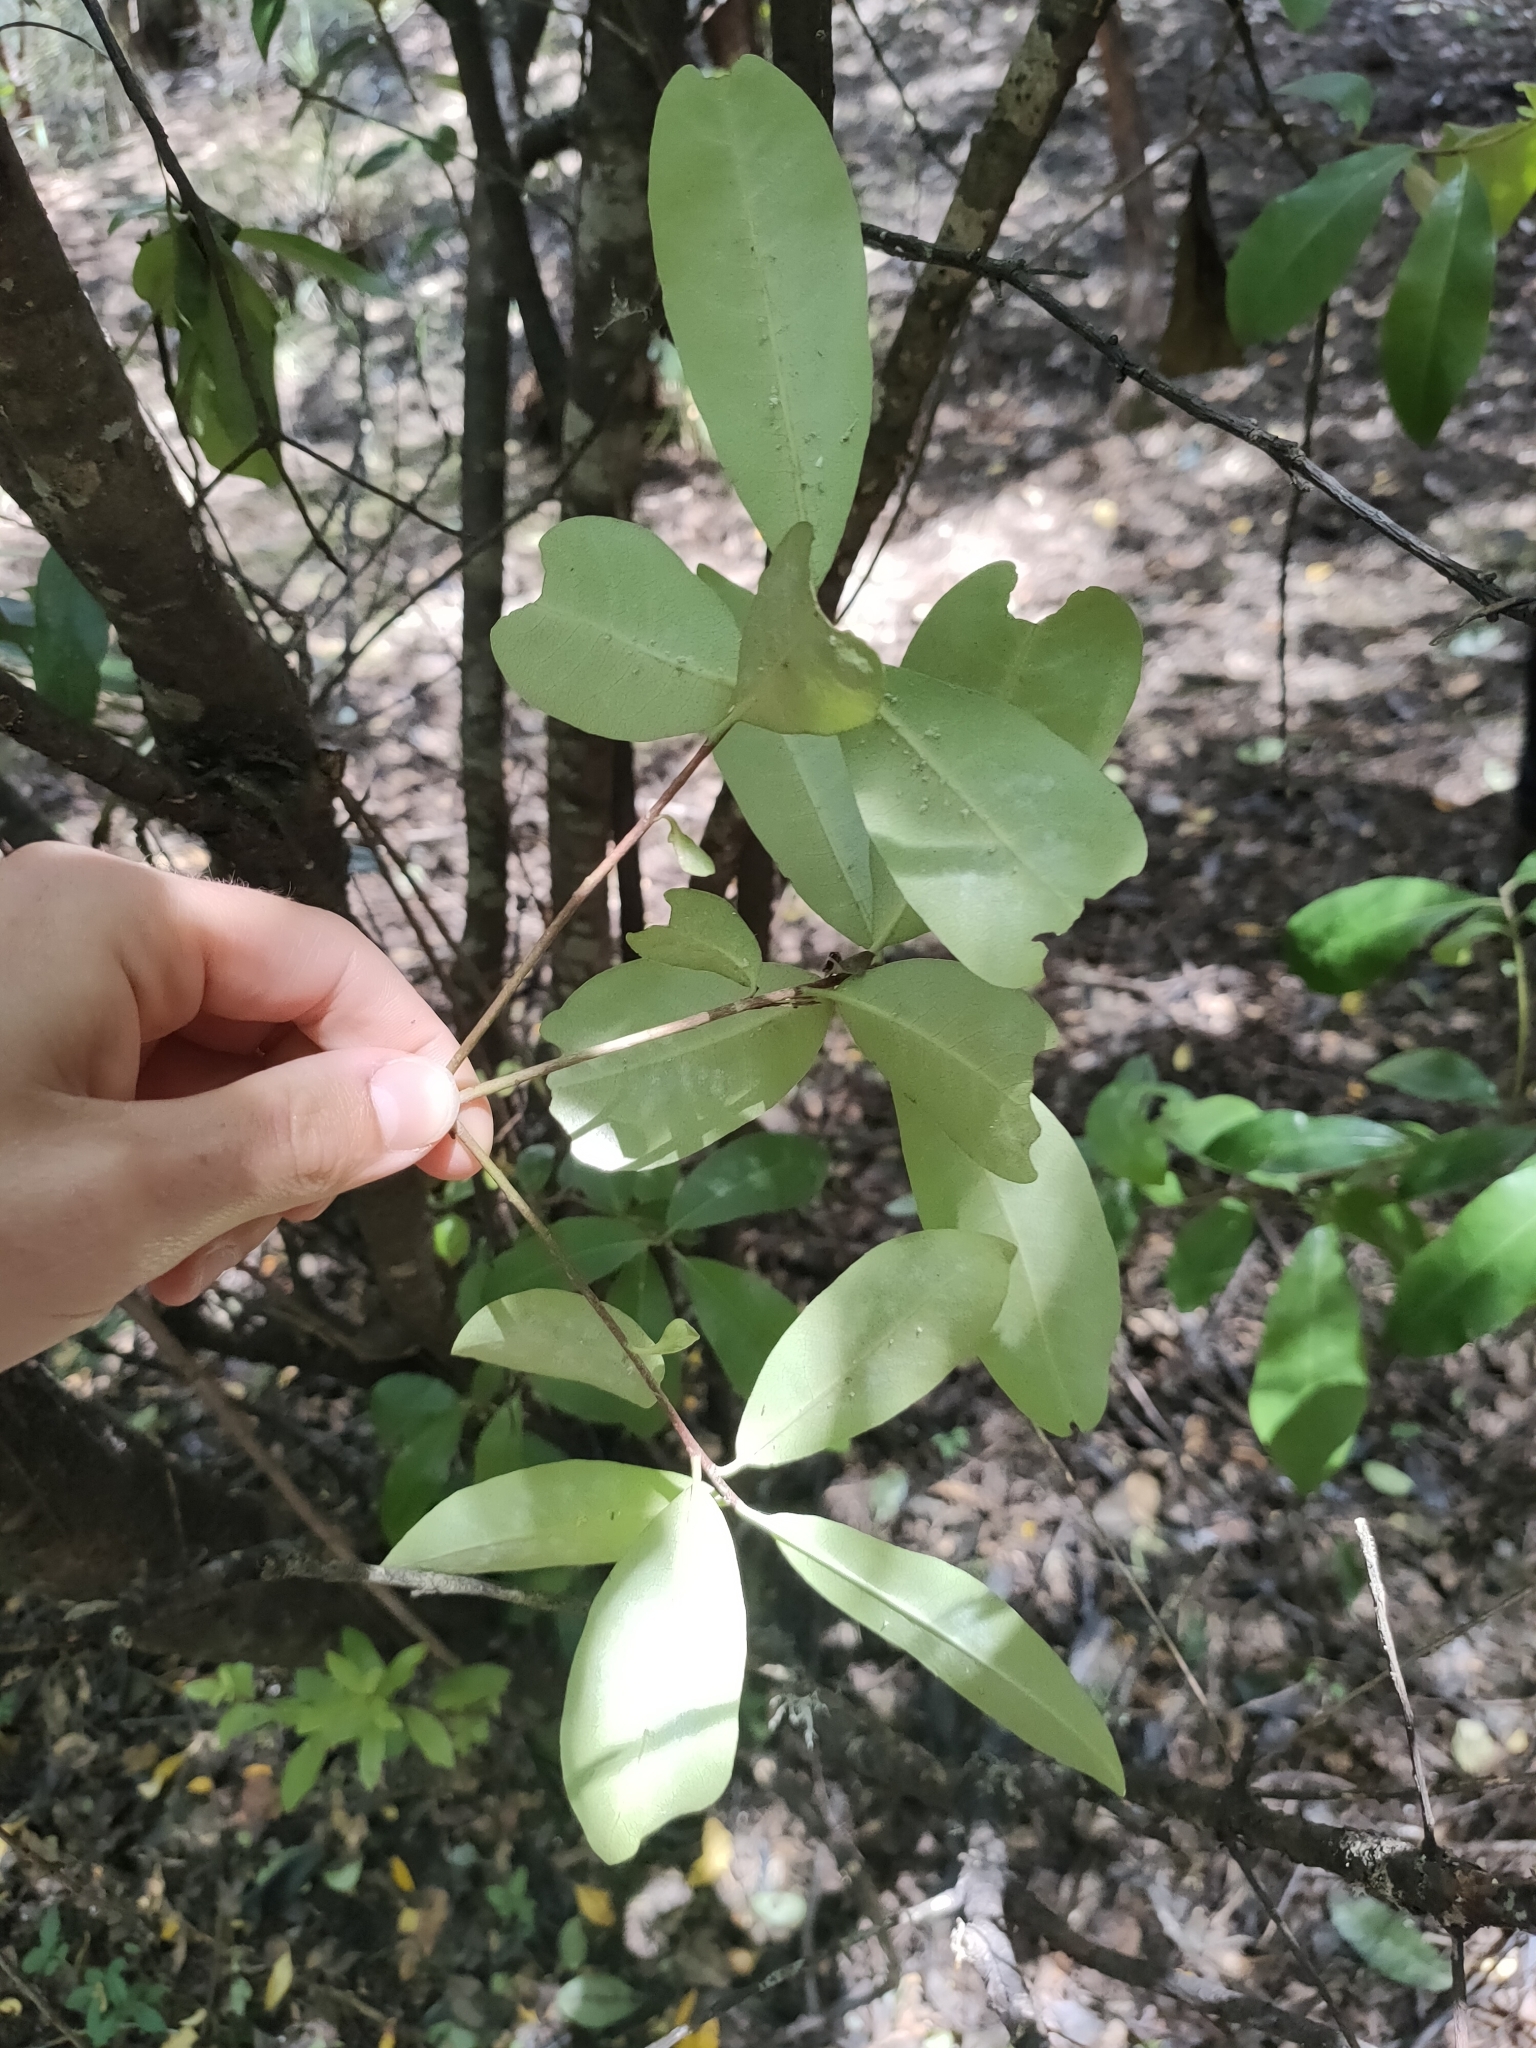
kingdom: Plantae
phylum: Tracheophyta
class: Magnoliopsida
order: Apiales
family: Pittosporaceae
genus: Pittosporum
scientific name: Pittosporum colensoi
